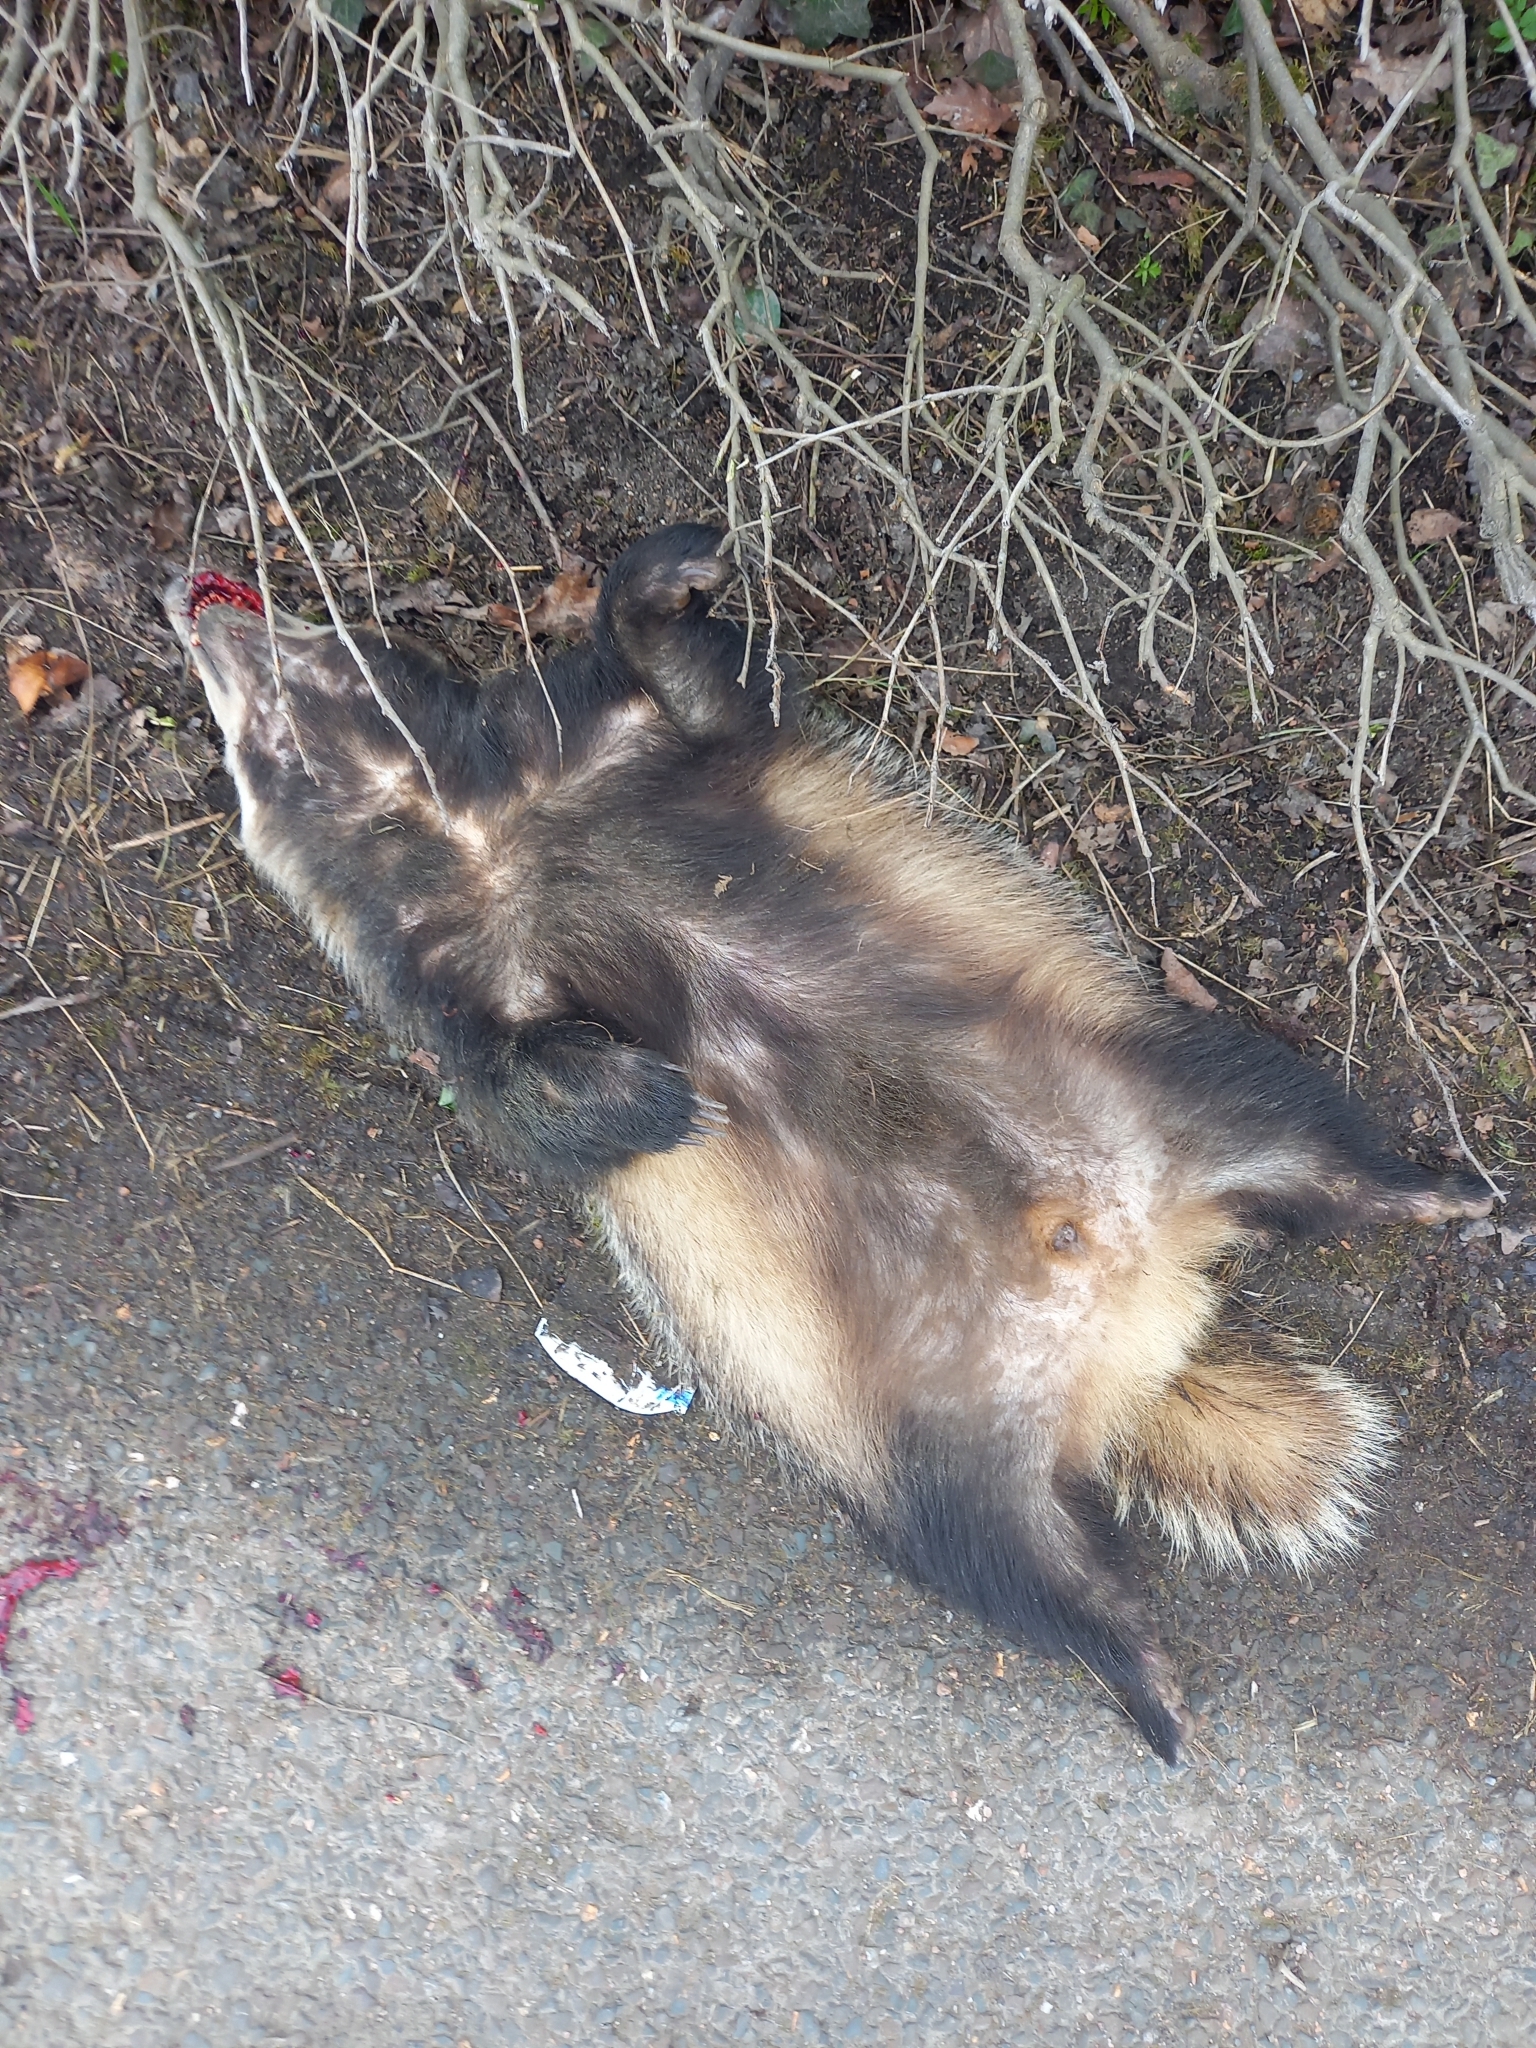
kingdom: Animalia
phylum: Chordata
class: Mammalia
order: Carnivora
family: Mustelidae
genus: Meles
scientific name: Meles meles
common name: Eurasian badger
